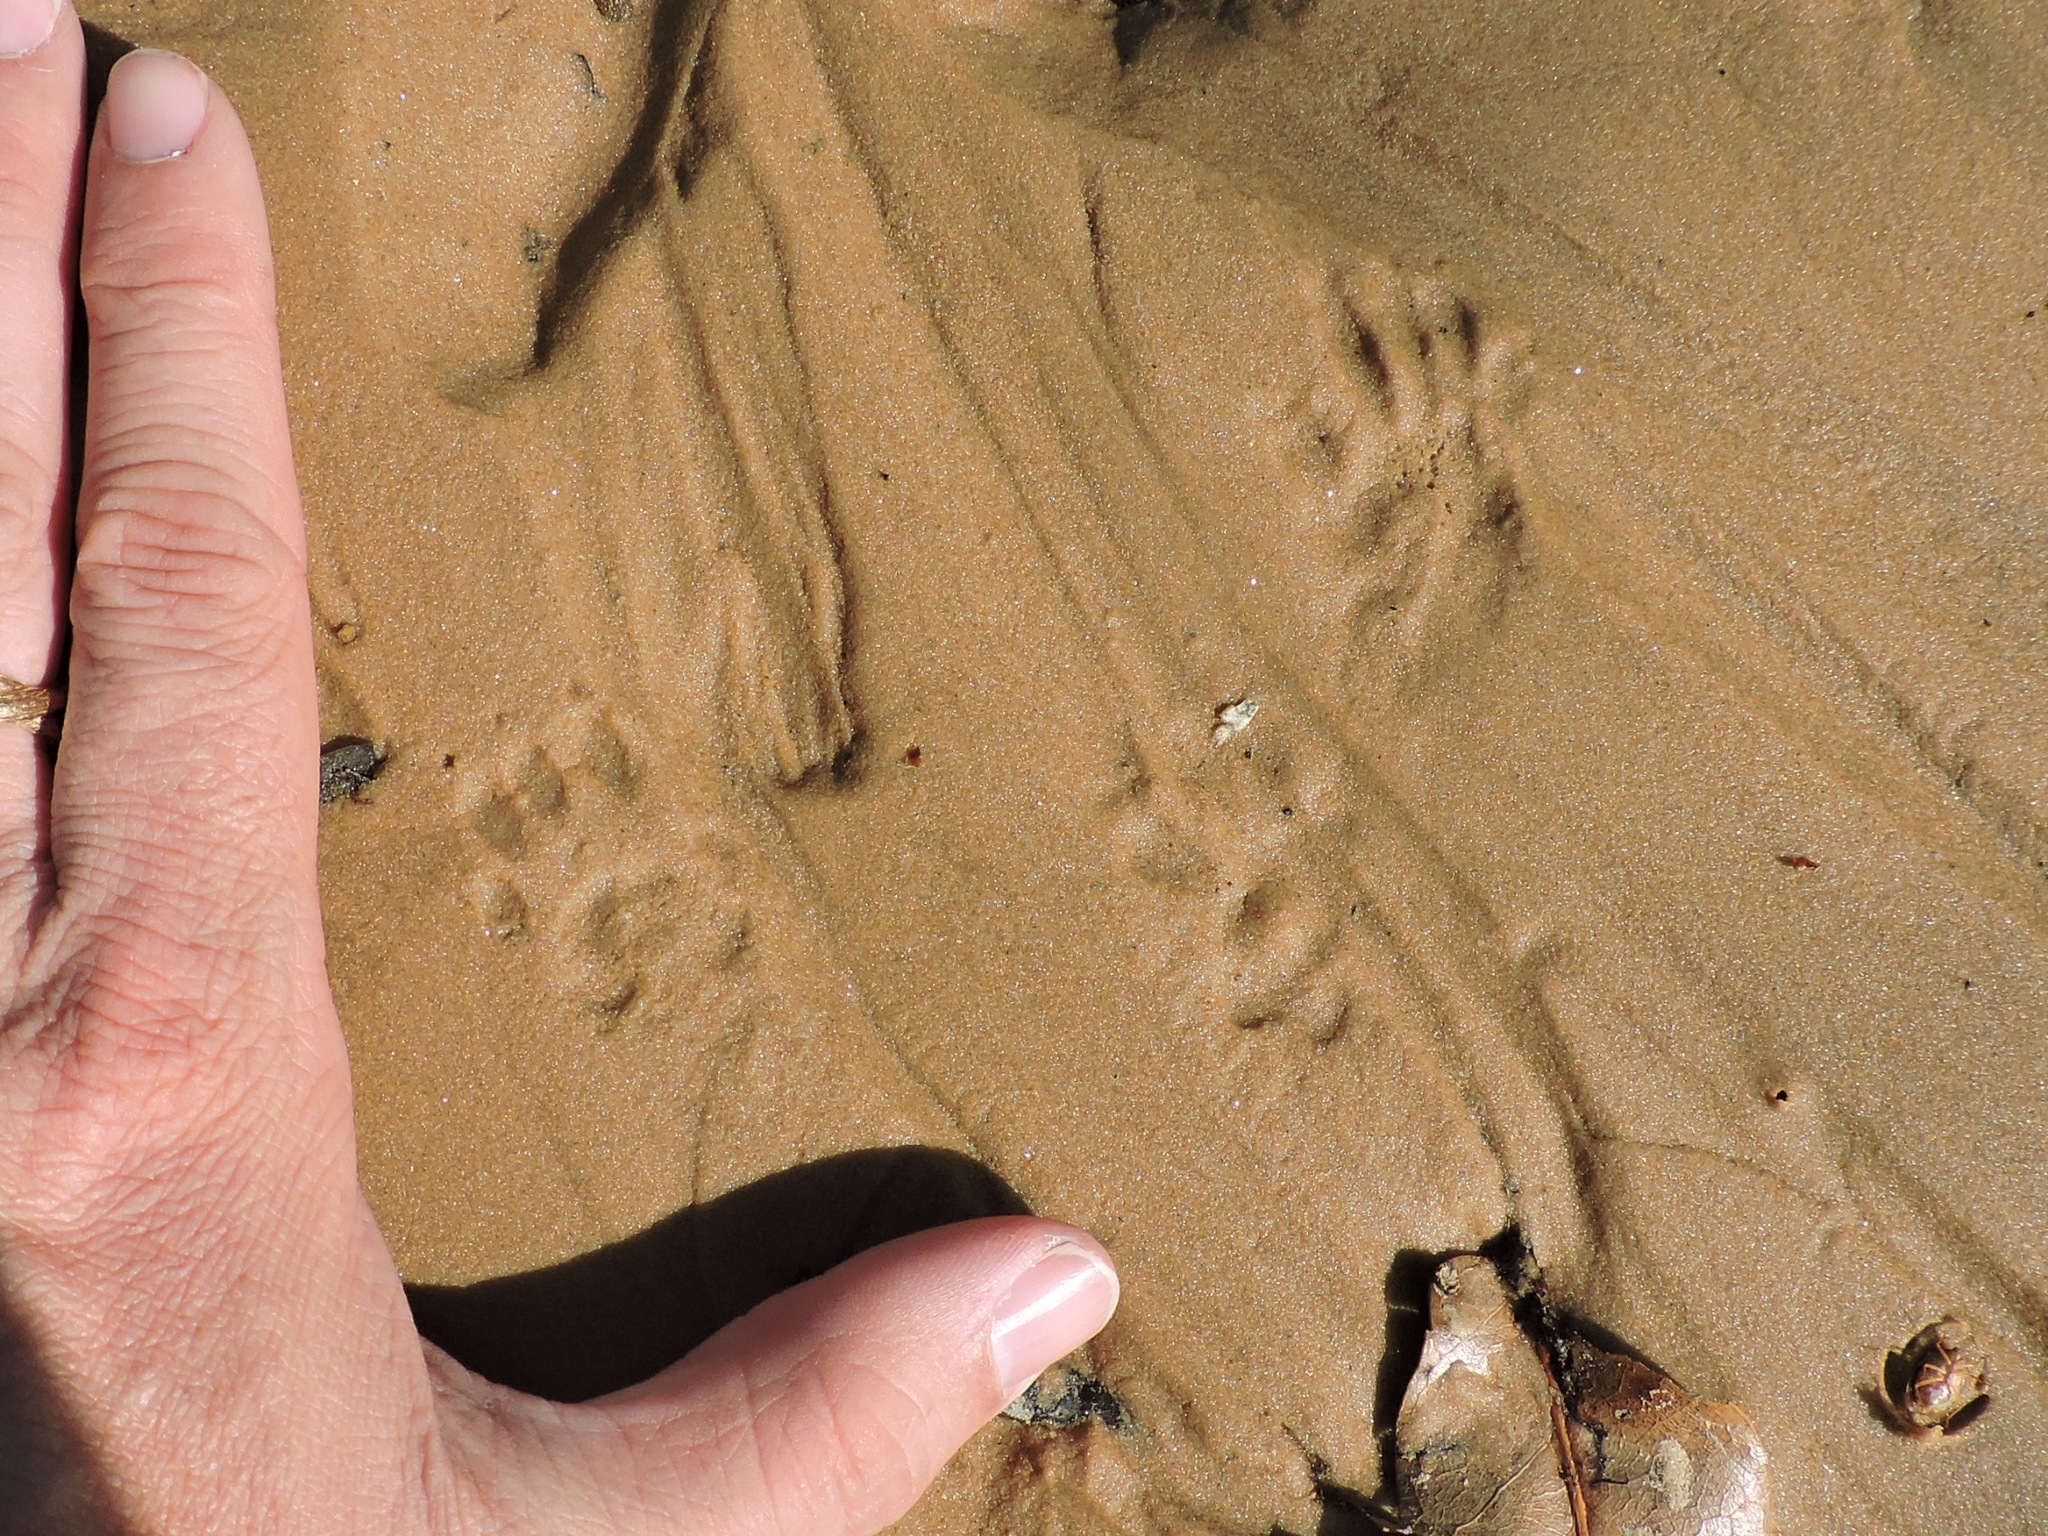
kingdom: Animalia
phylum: Chordata
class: Mammalia
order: Rodentia
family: Sciuridae
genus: Sciurus
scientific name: Sciurus niger
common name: Fox squirrel
